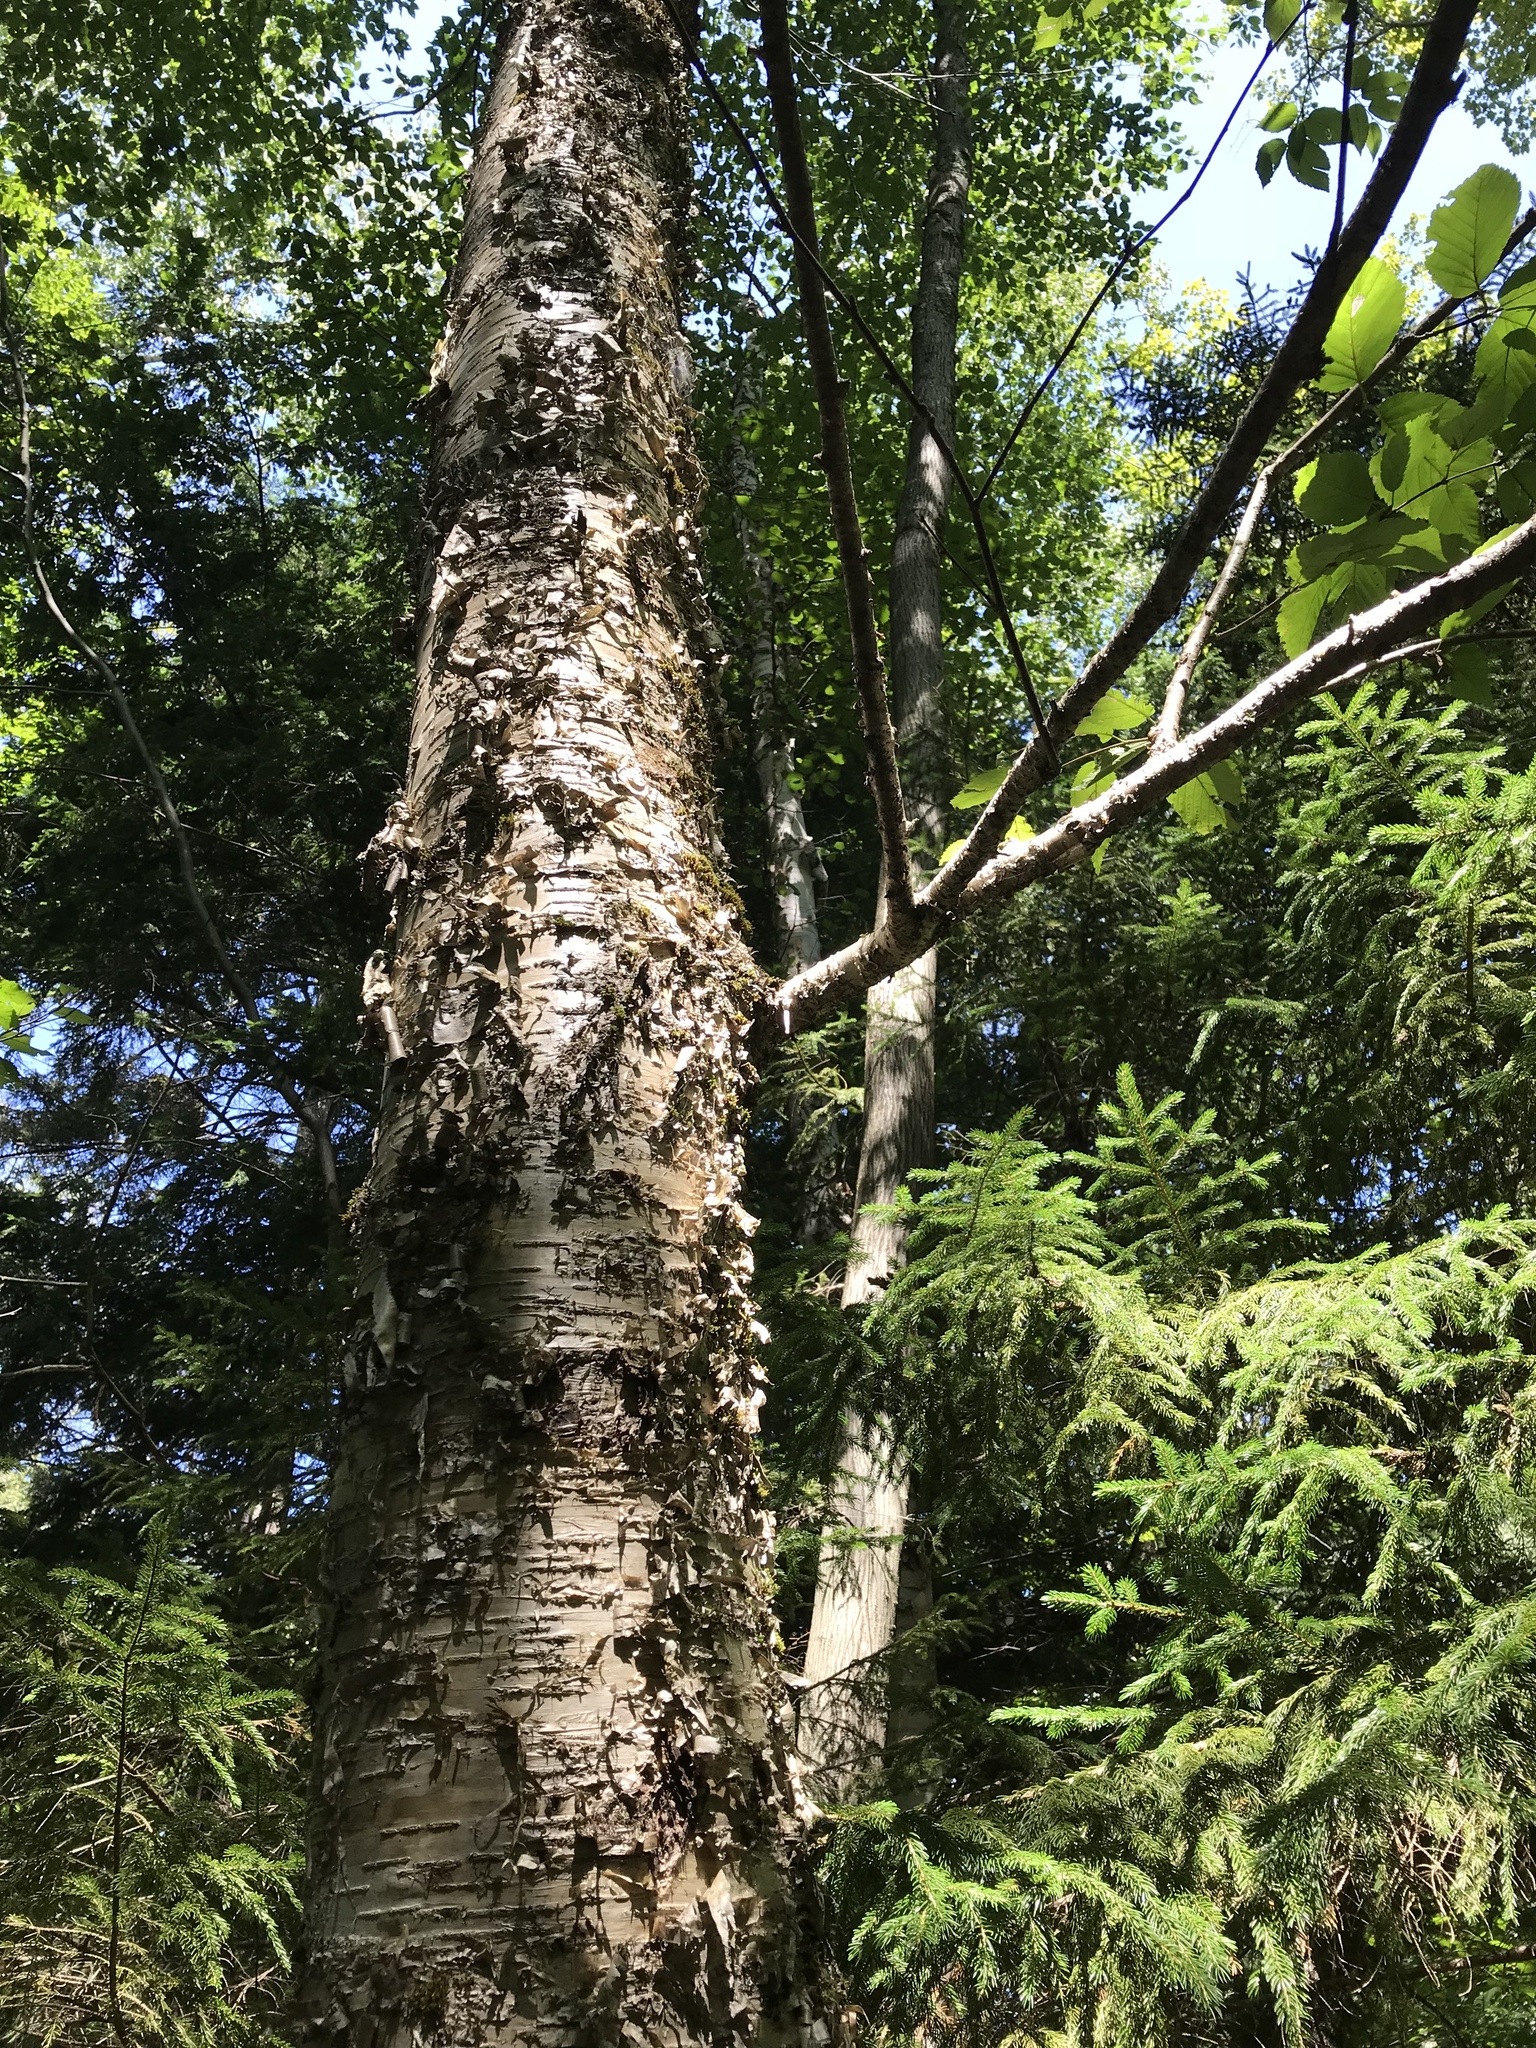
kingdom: Plantae
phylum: Tracheophyta
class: Magnoliopsida
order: Fagales
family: Betulaceae
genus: Betula
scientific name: Betula alleghaniensis
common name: Yellow birch
